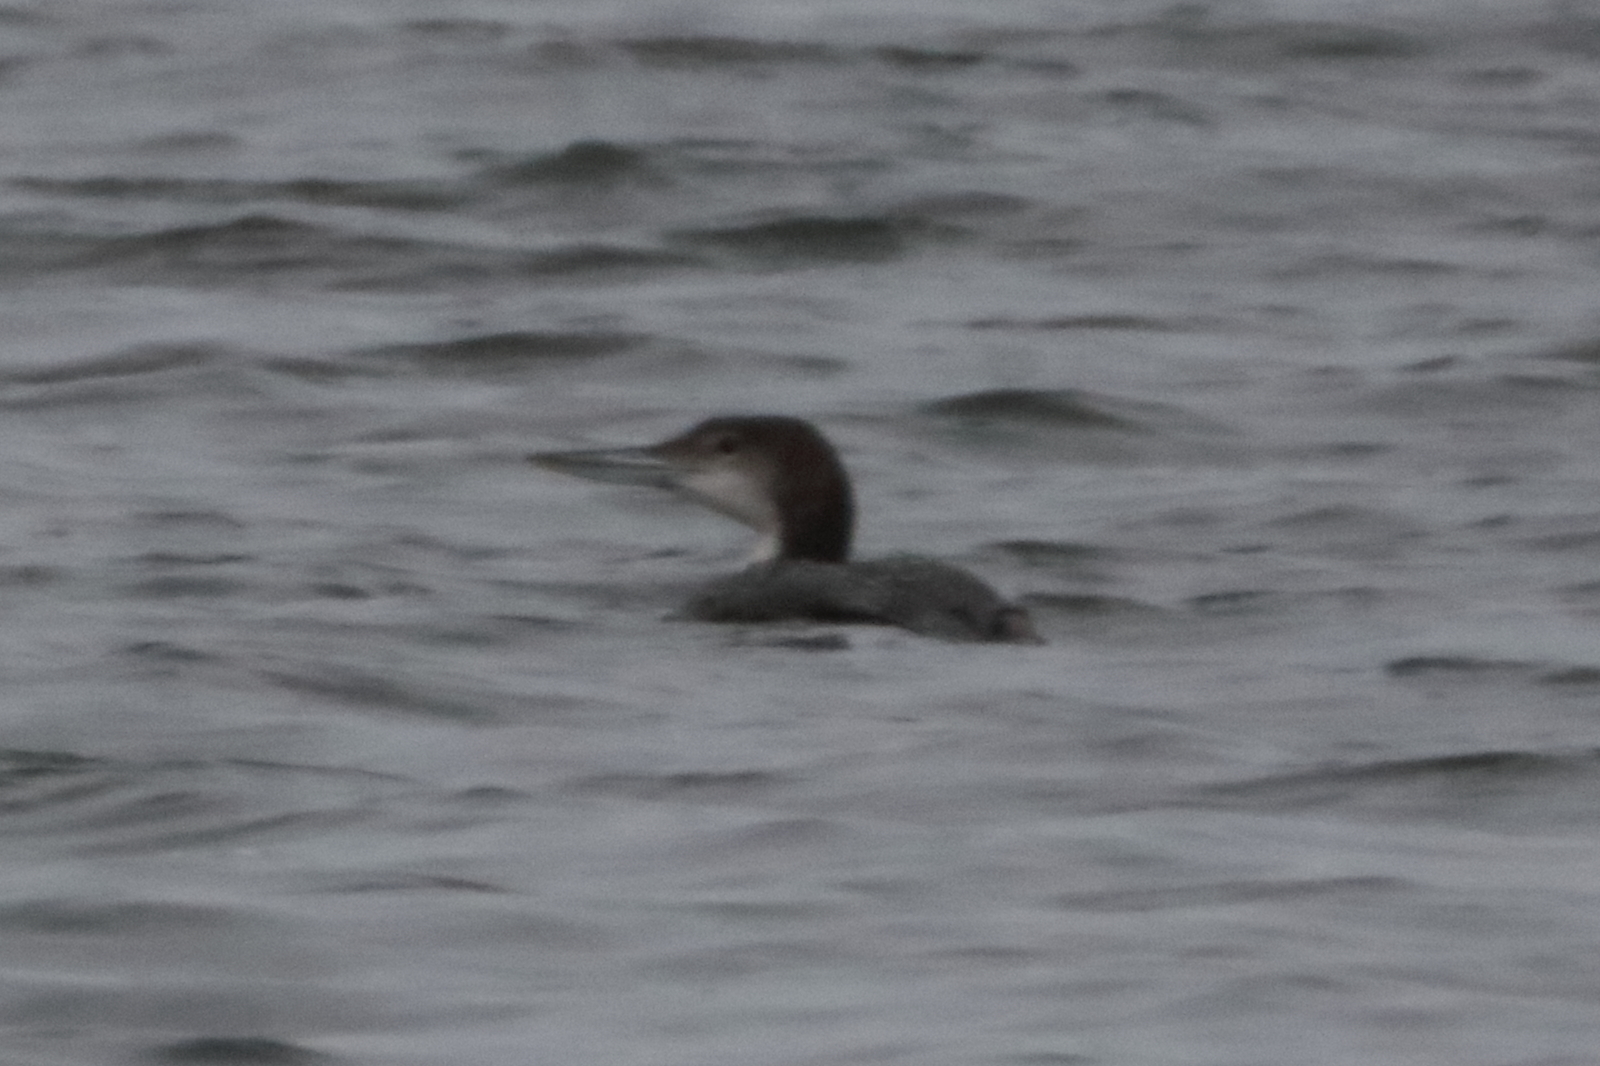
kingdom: Animalia
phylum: Chordata
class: Aves
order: Gaviiformes
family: Gaviidae
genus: Gavia
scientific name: Gavia immer
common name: Common loon
